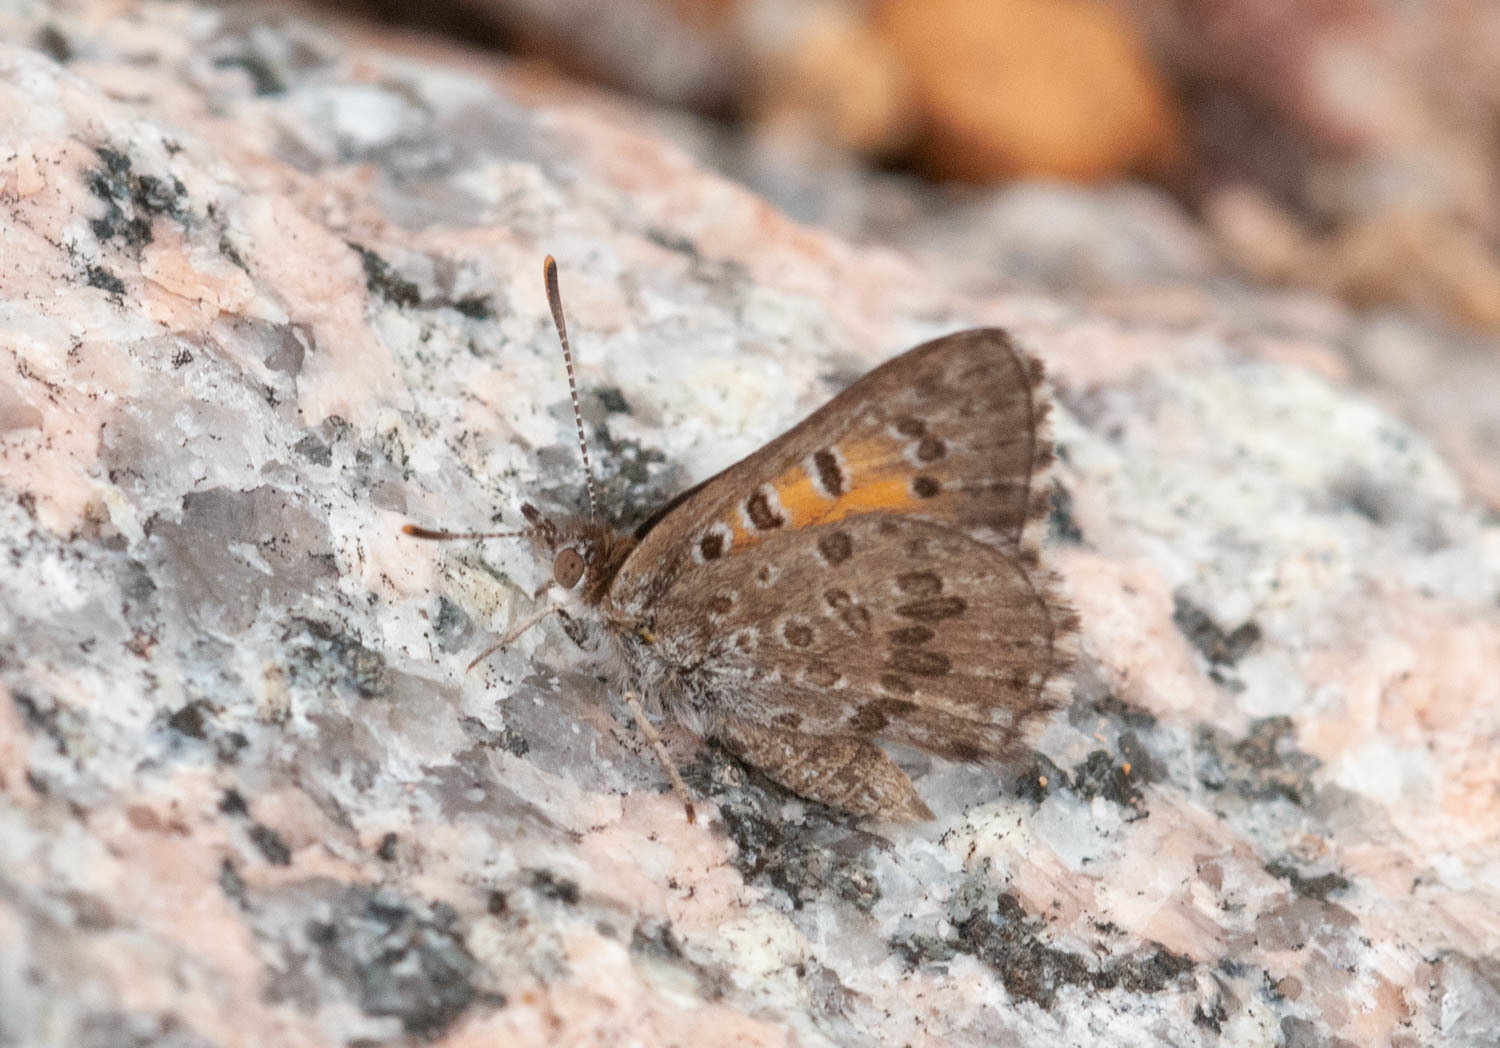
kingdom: Animalia
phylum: Arthropoda
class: Insecta
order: Lepidoptera
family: Lycaenidae
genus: Lucia
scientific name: Lucia limbaria
